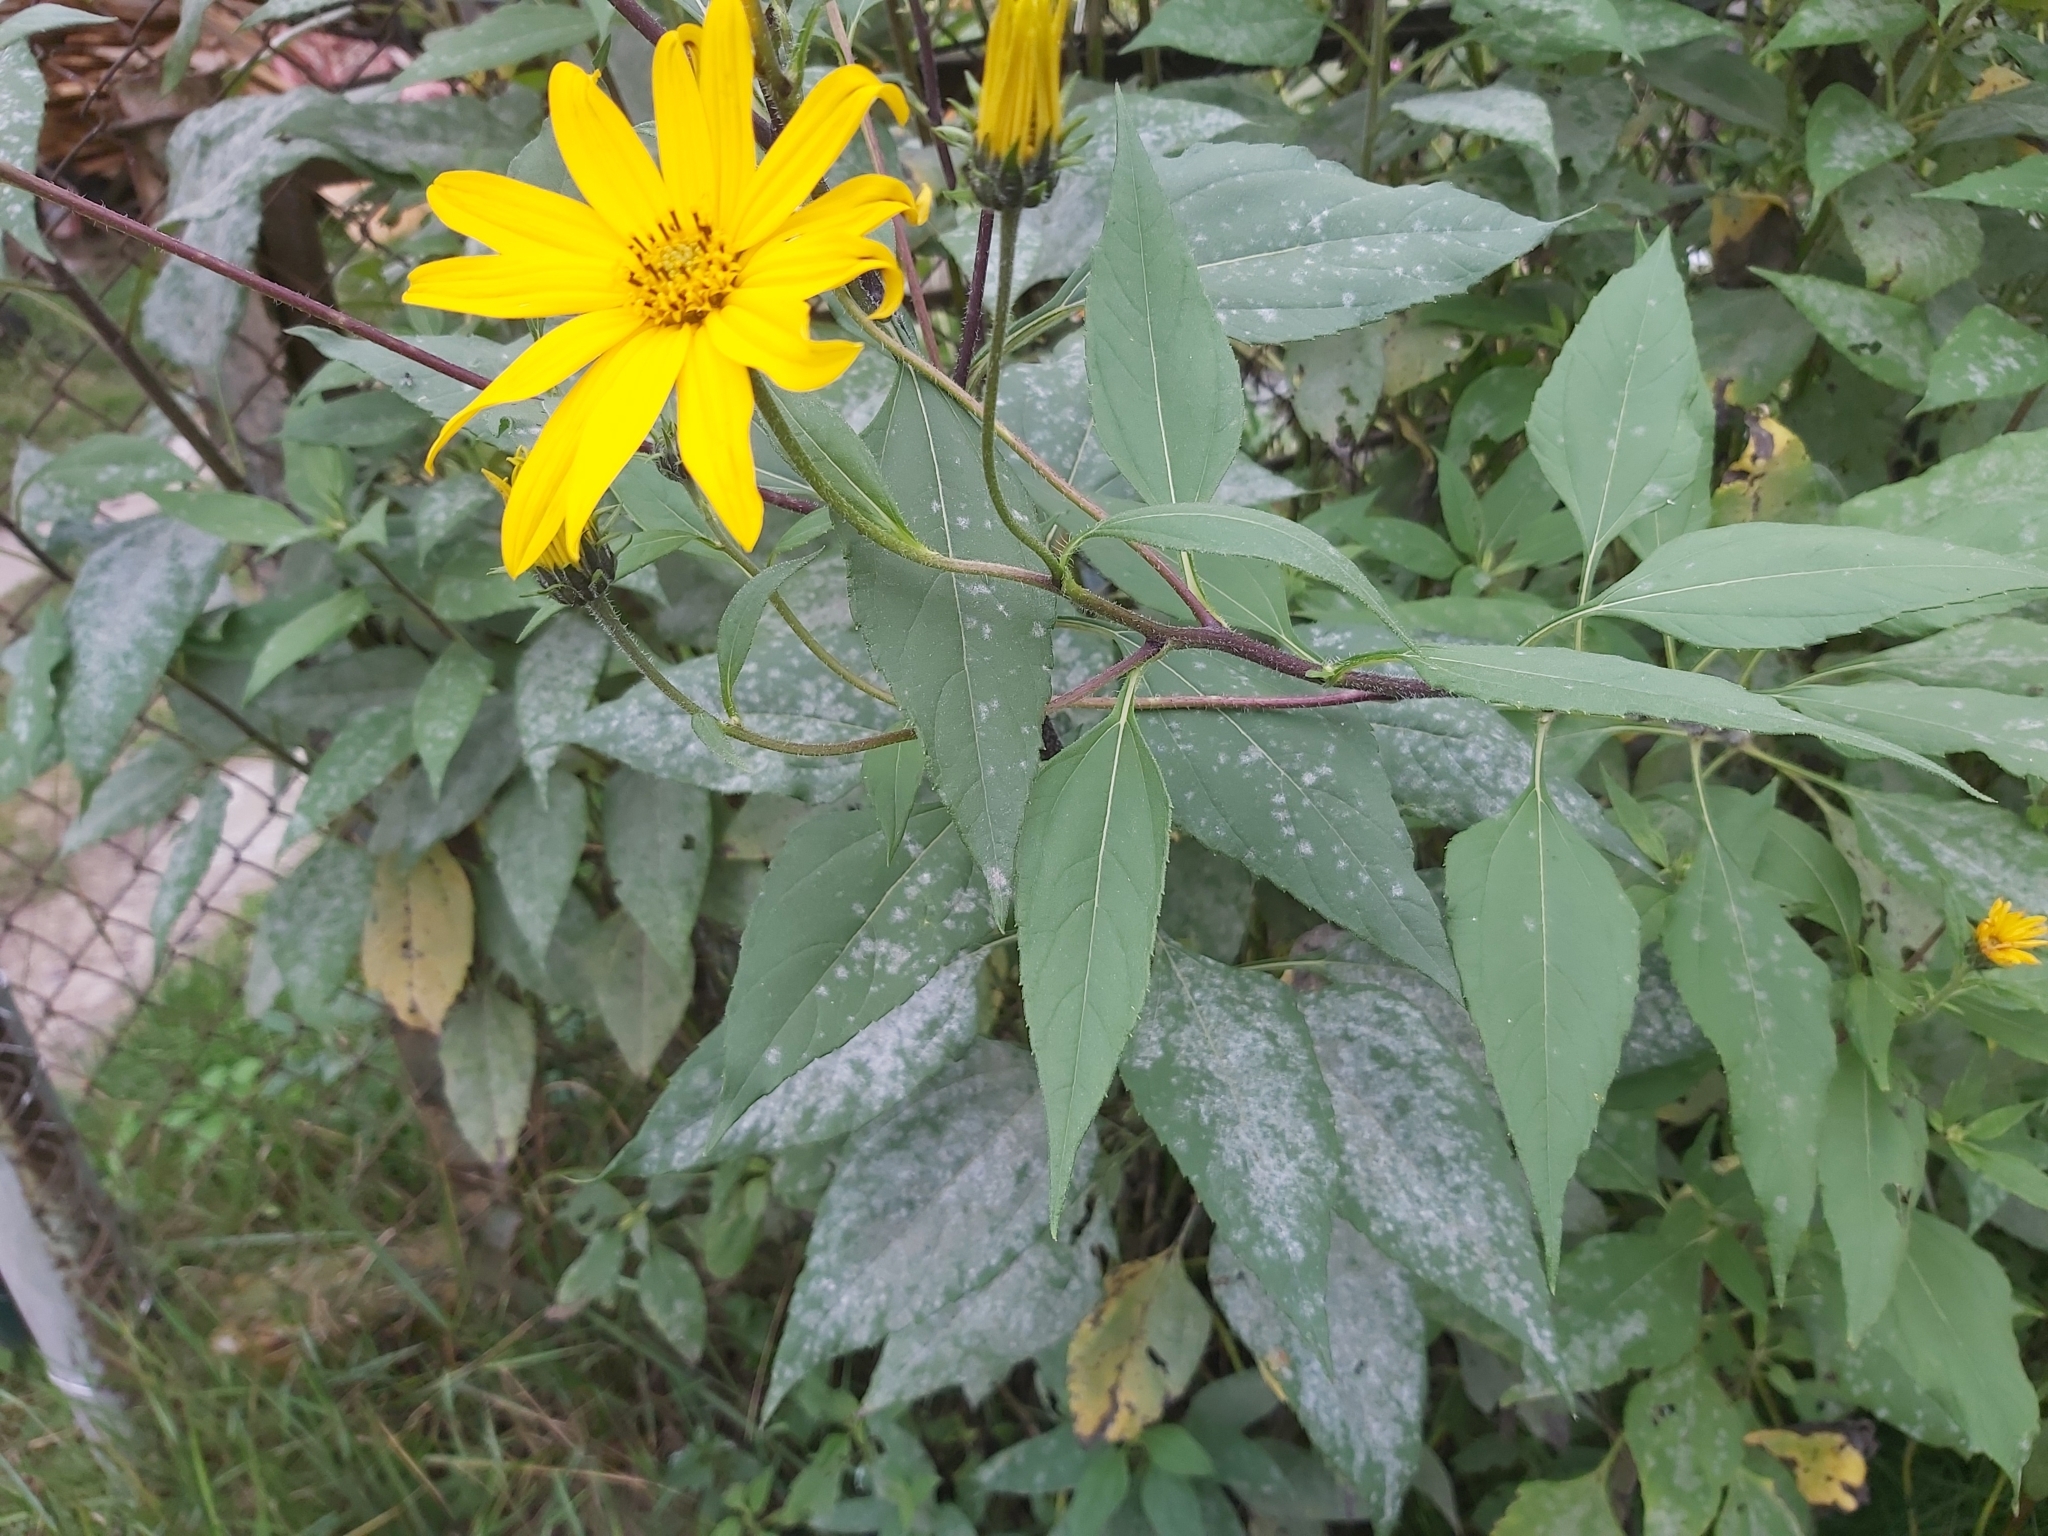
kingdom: Fungi
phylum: Ascomycota
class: Leotiomycetes
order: Helotiales
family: Erysiphaceae
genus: Golovinomyces
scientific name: Golovinomyces ambrosiae
